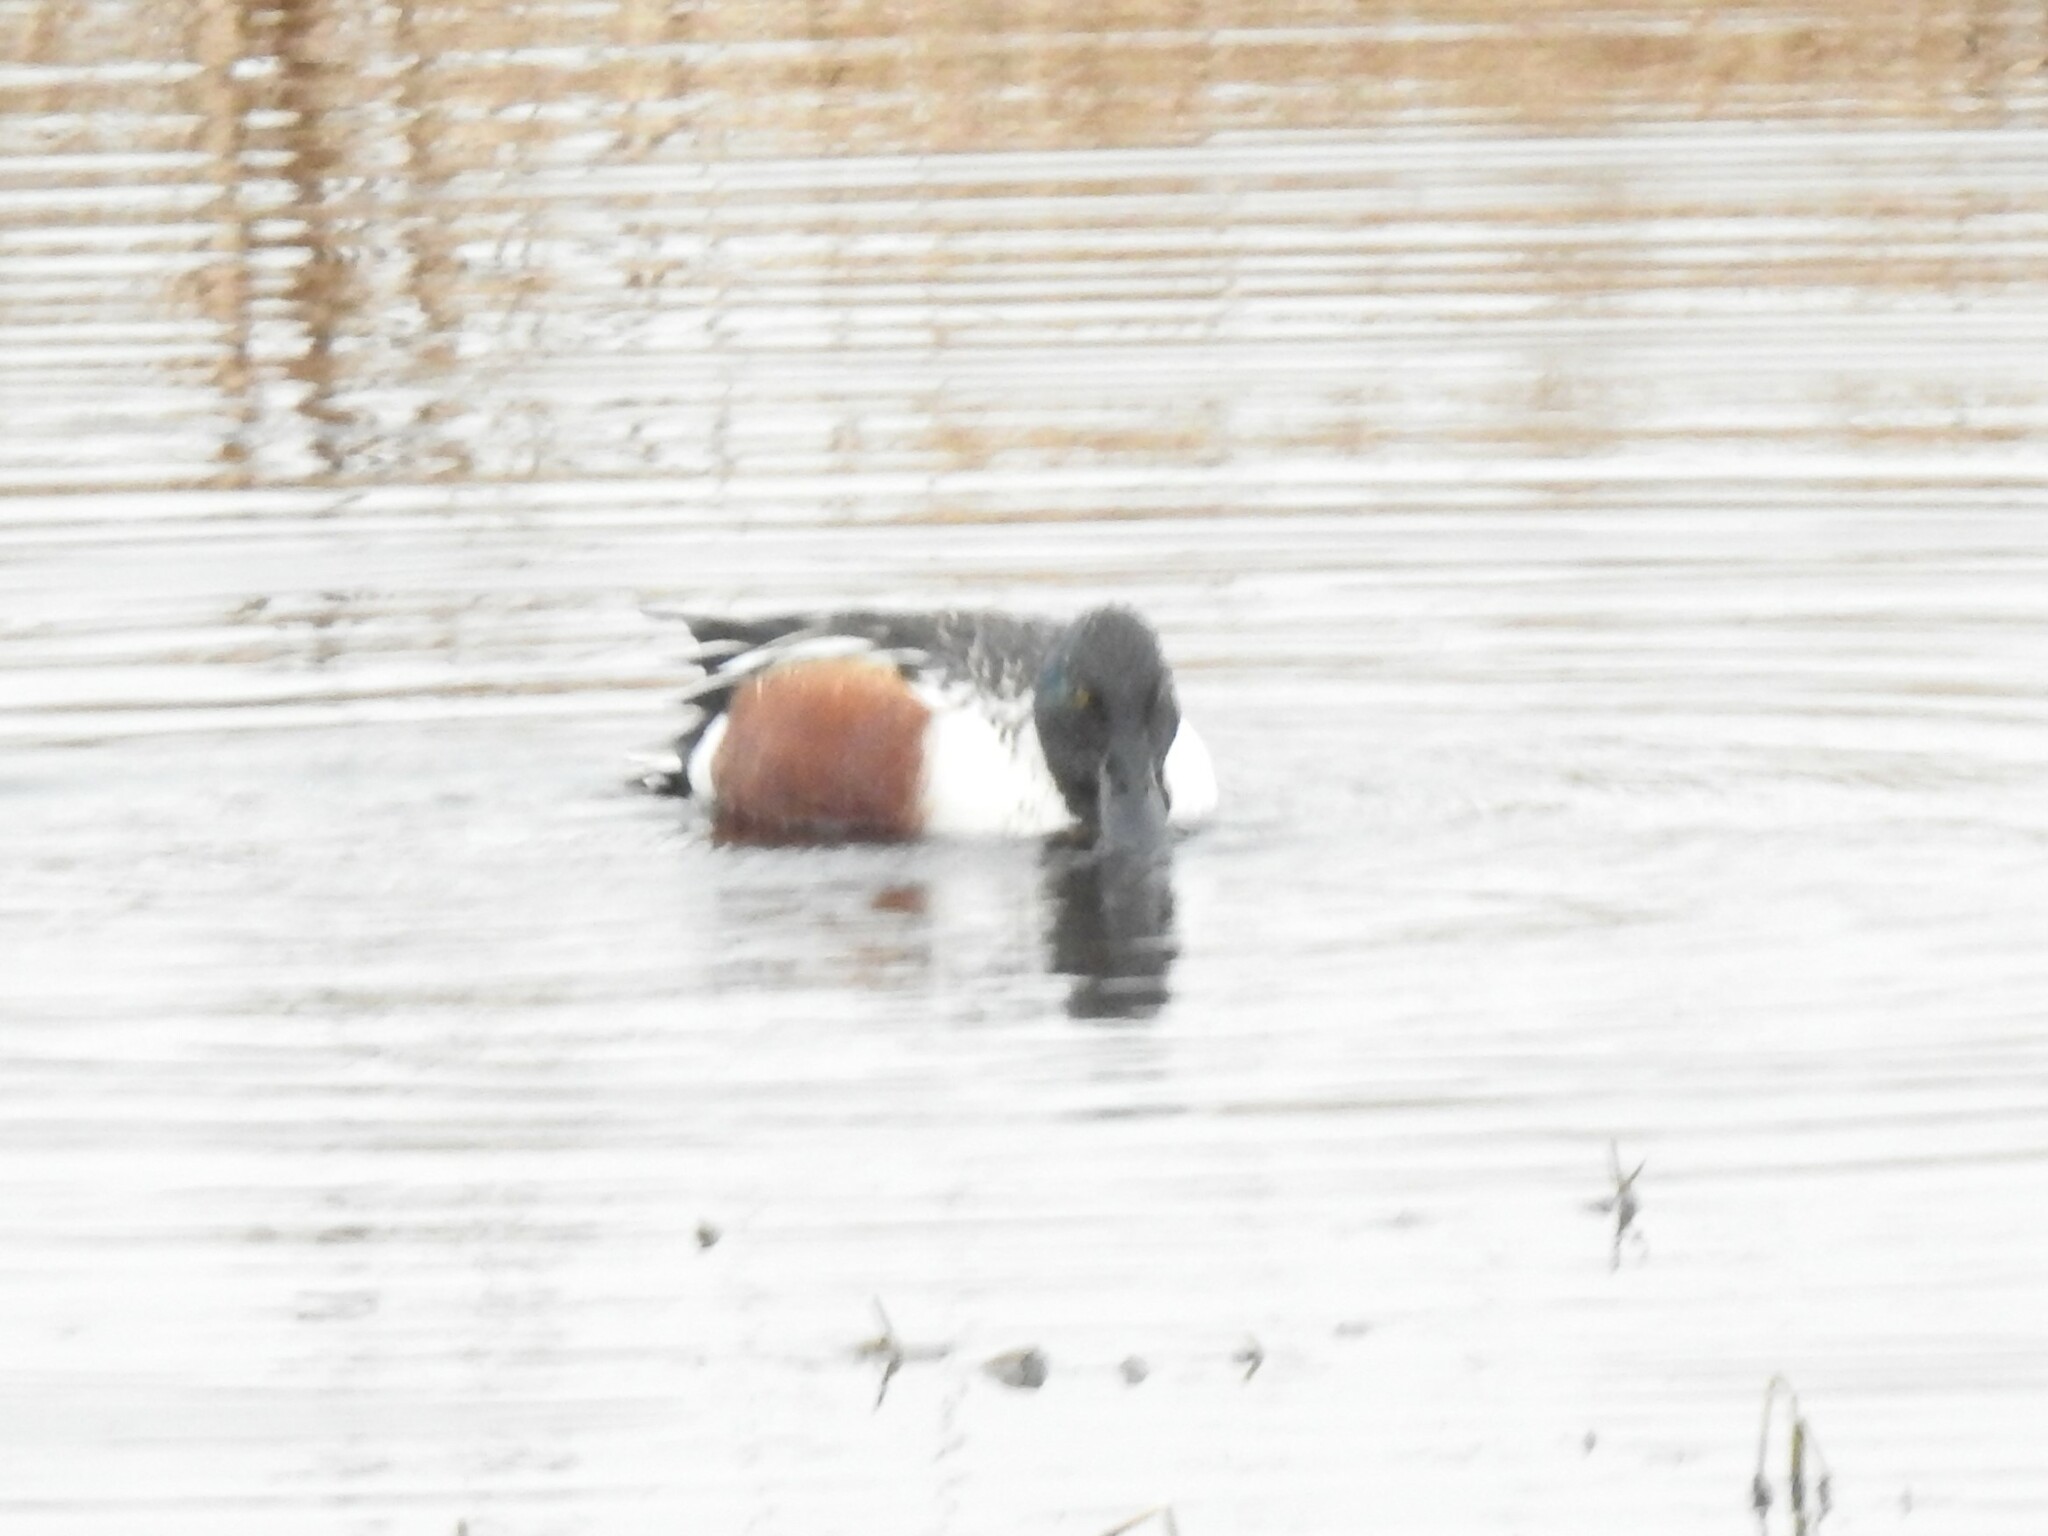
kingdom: Animalia
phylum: Chordata
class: Aves
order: Anseriformes
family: Anatidae
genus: Spatula
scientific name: Spatula clypeata
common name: Northern shoveler
